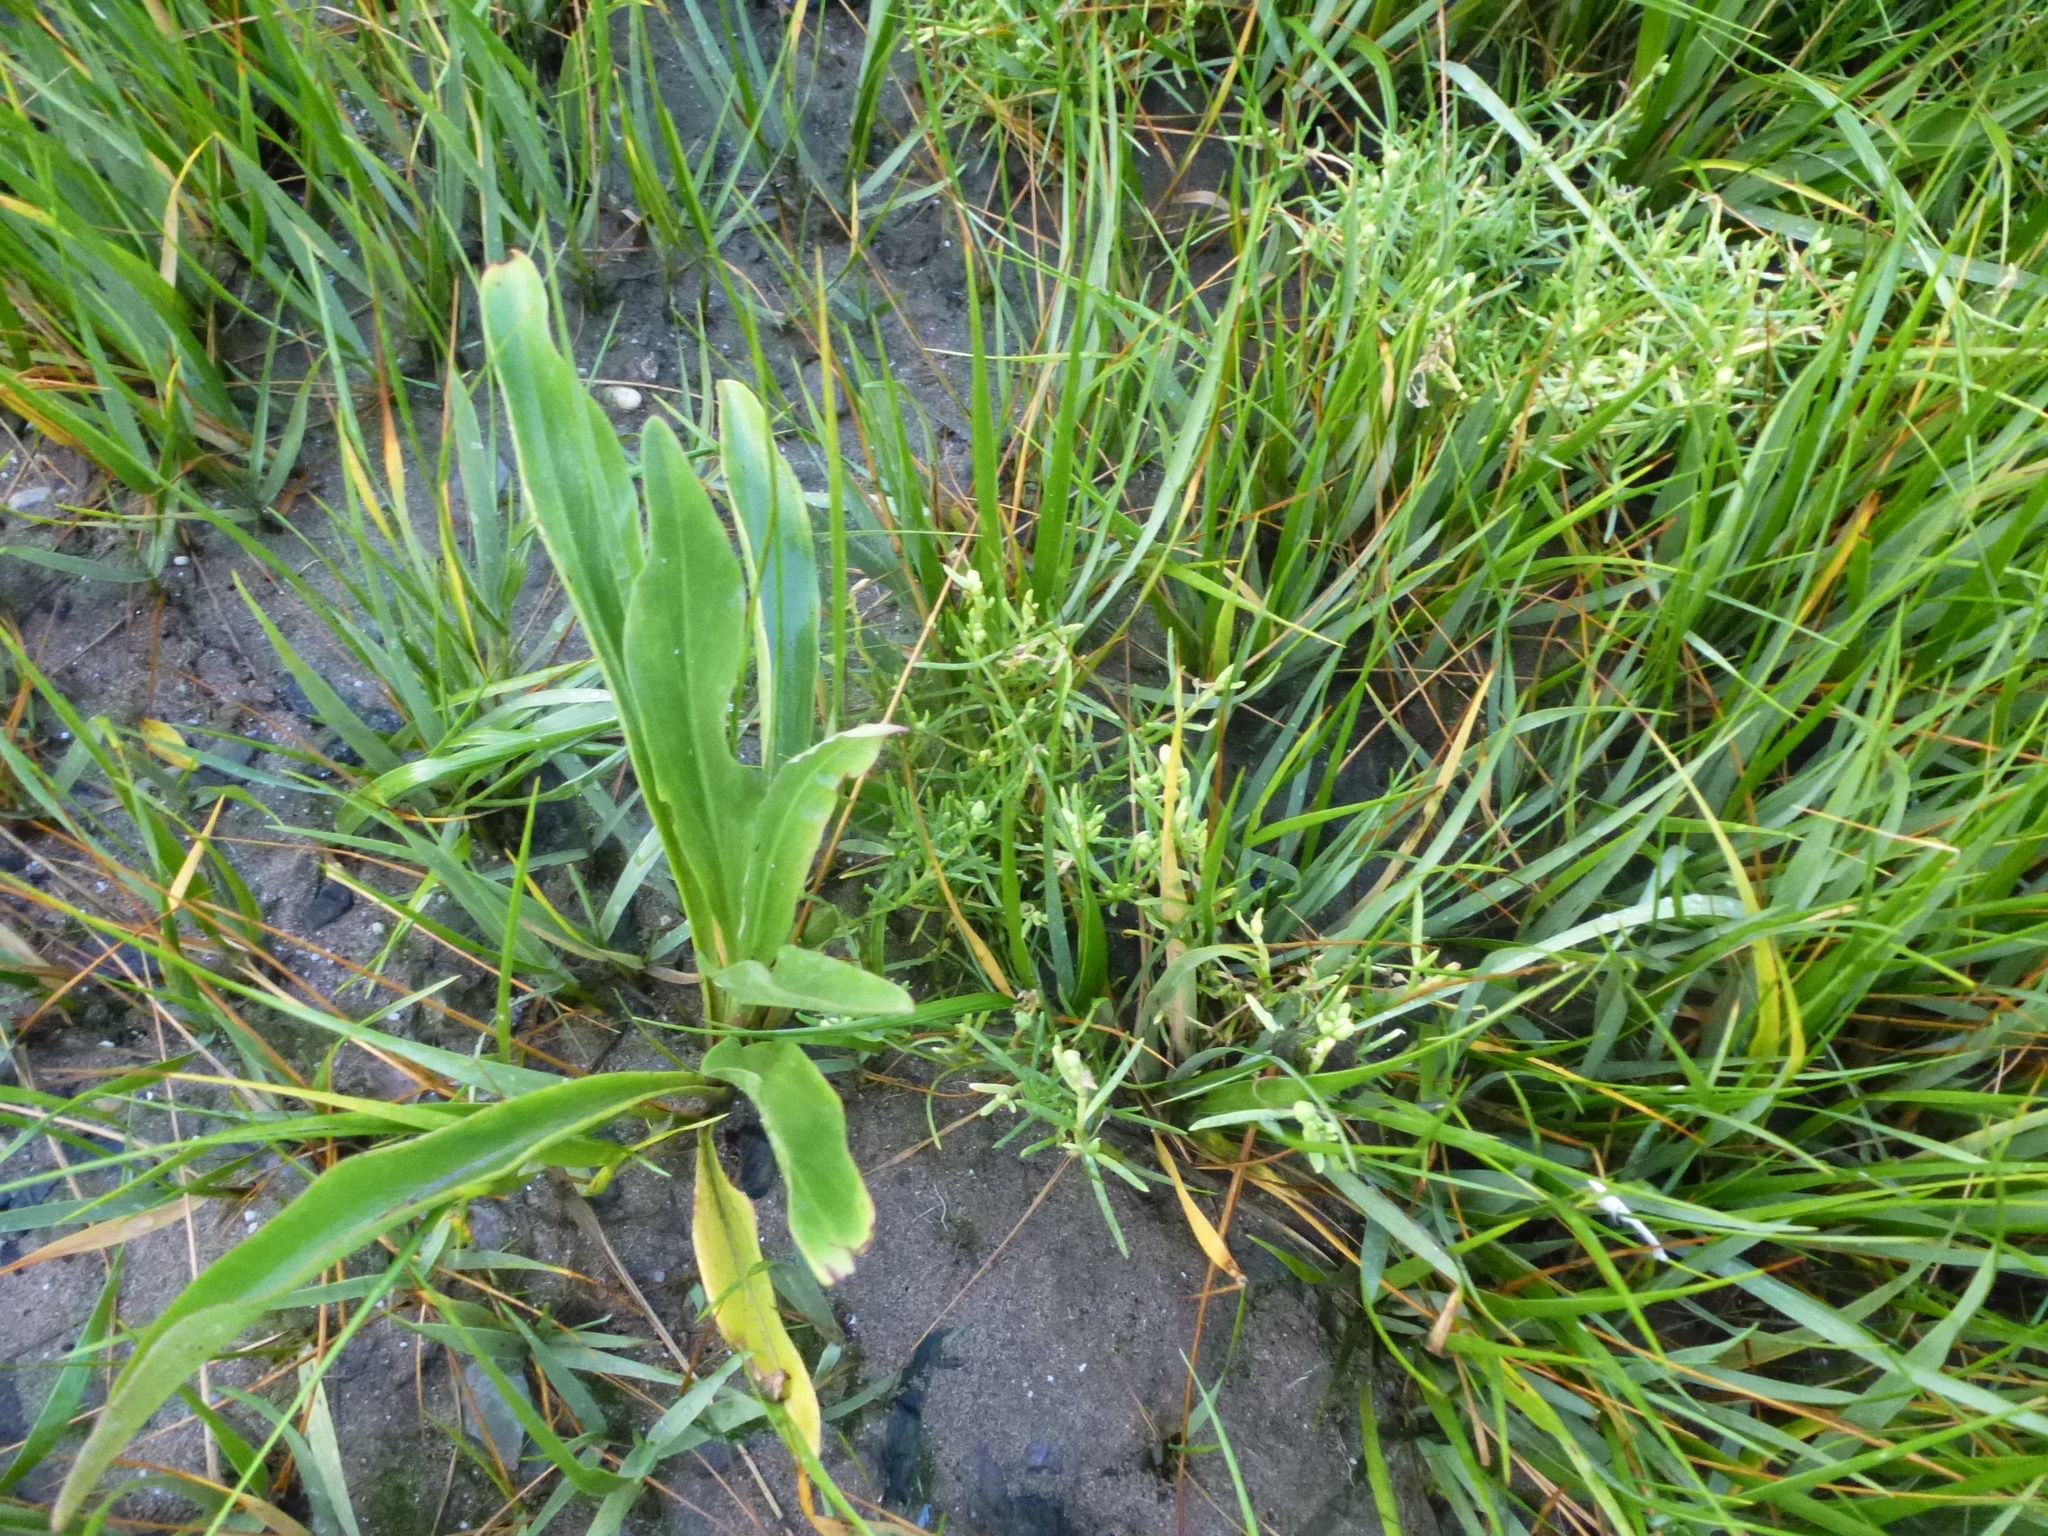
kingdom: Plantae
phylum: Tracheophyta
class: Magnoliopsida
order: Asterales
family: Asteraceae
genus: Solidago
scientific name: Solidago sempervirens
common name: Salt-marsh goldenrod
